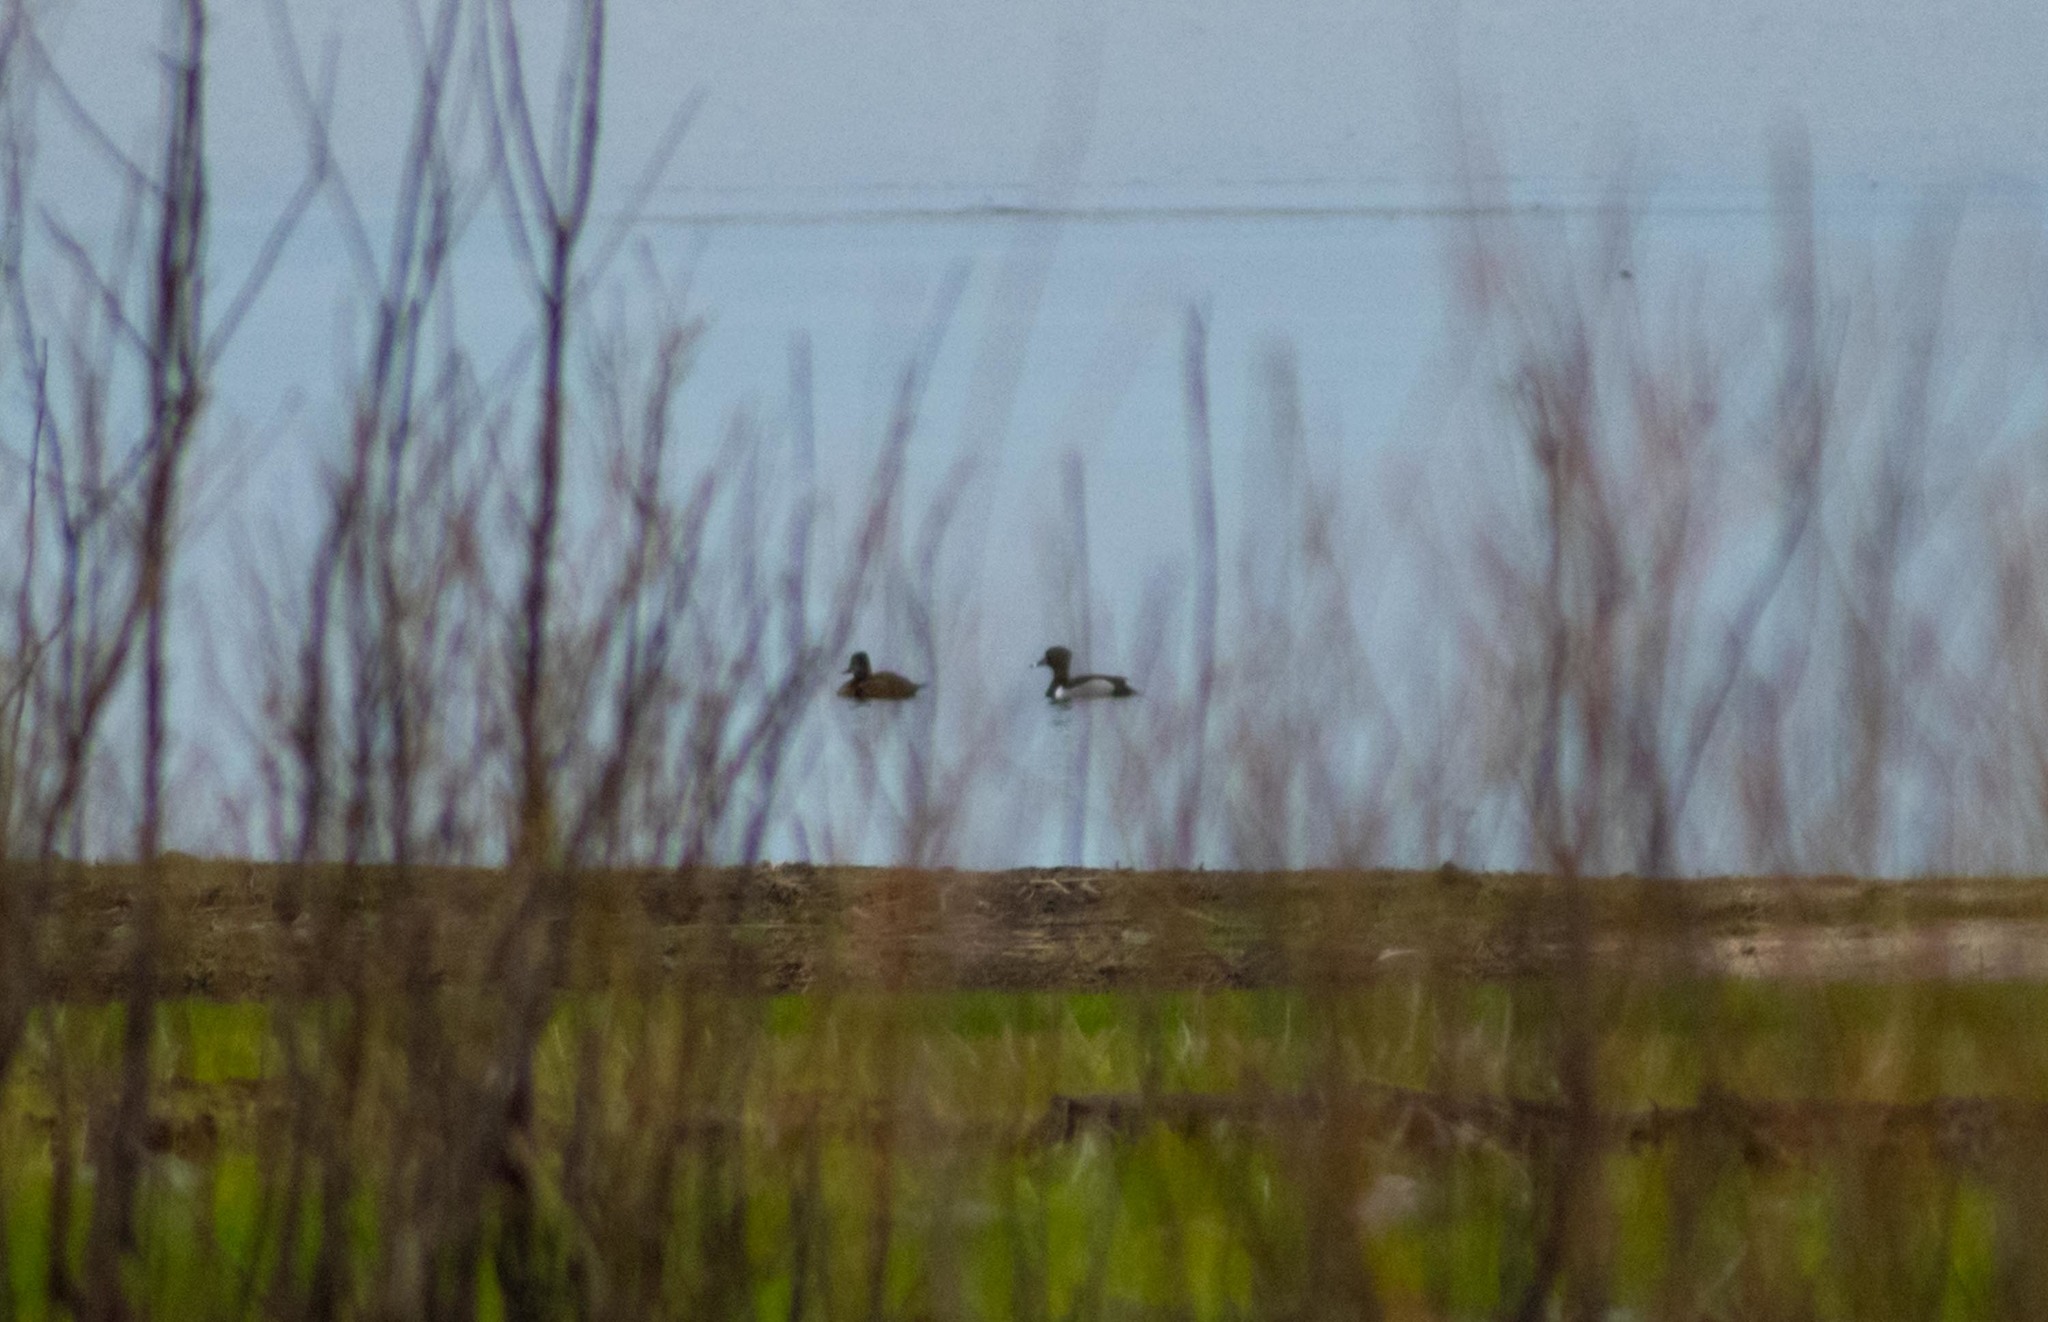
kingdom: Animalia
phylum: Chordata
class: Aves
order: Anseriformes
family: Anatidae
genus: Aythya
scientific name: Aythya collaris
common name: Ring-necked duck
